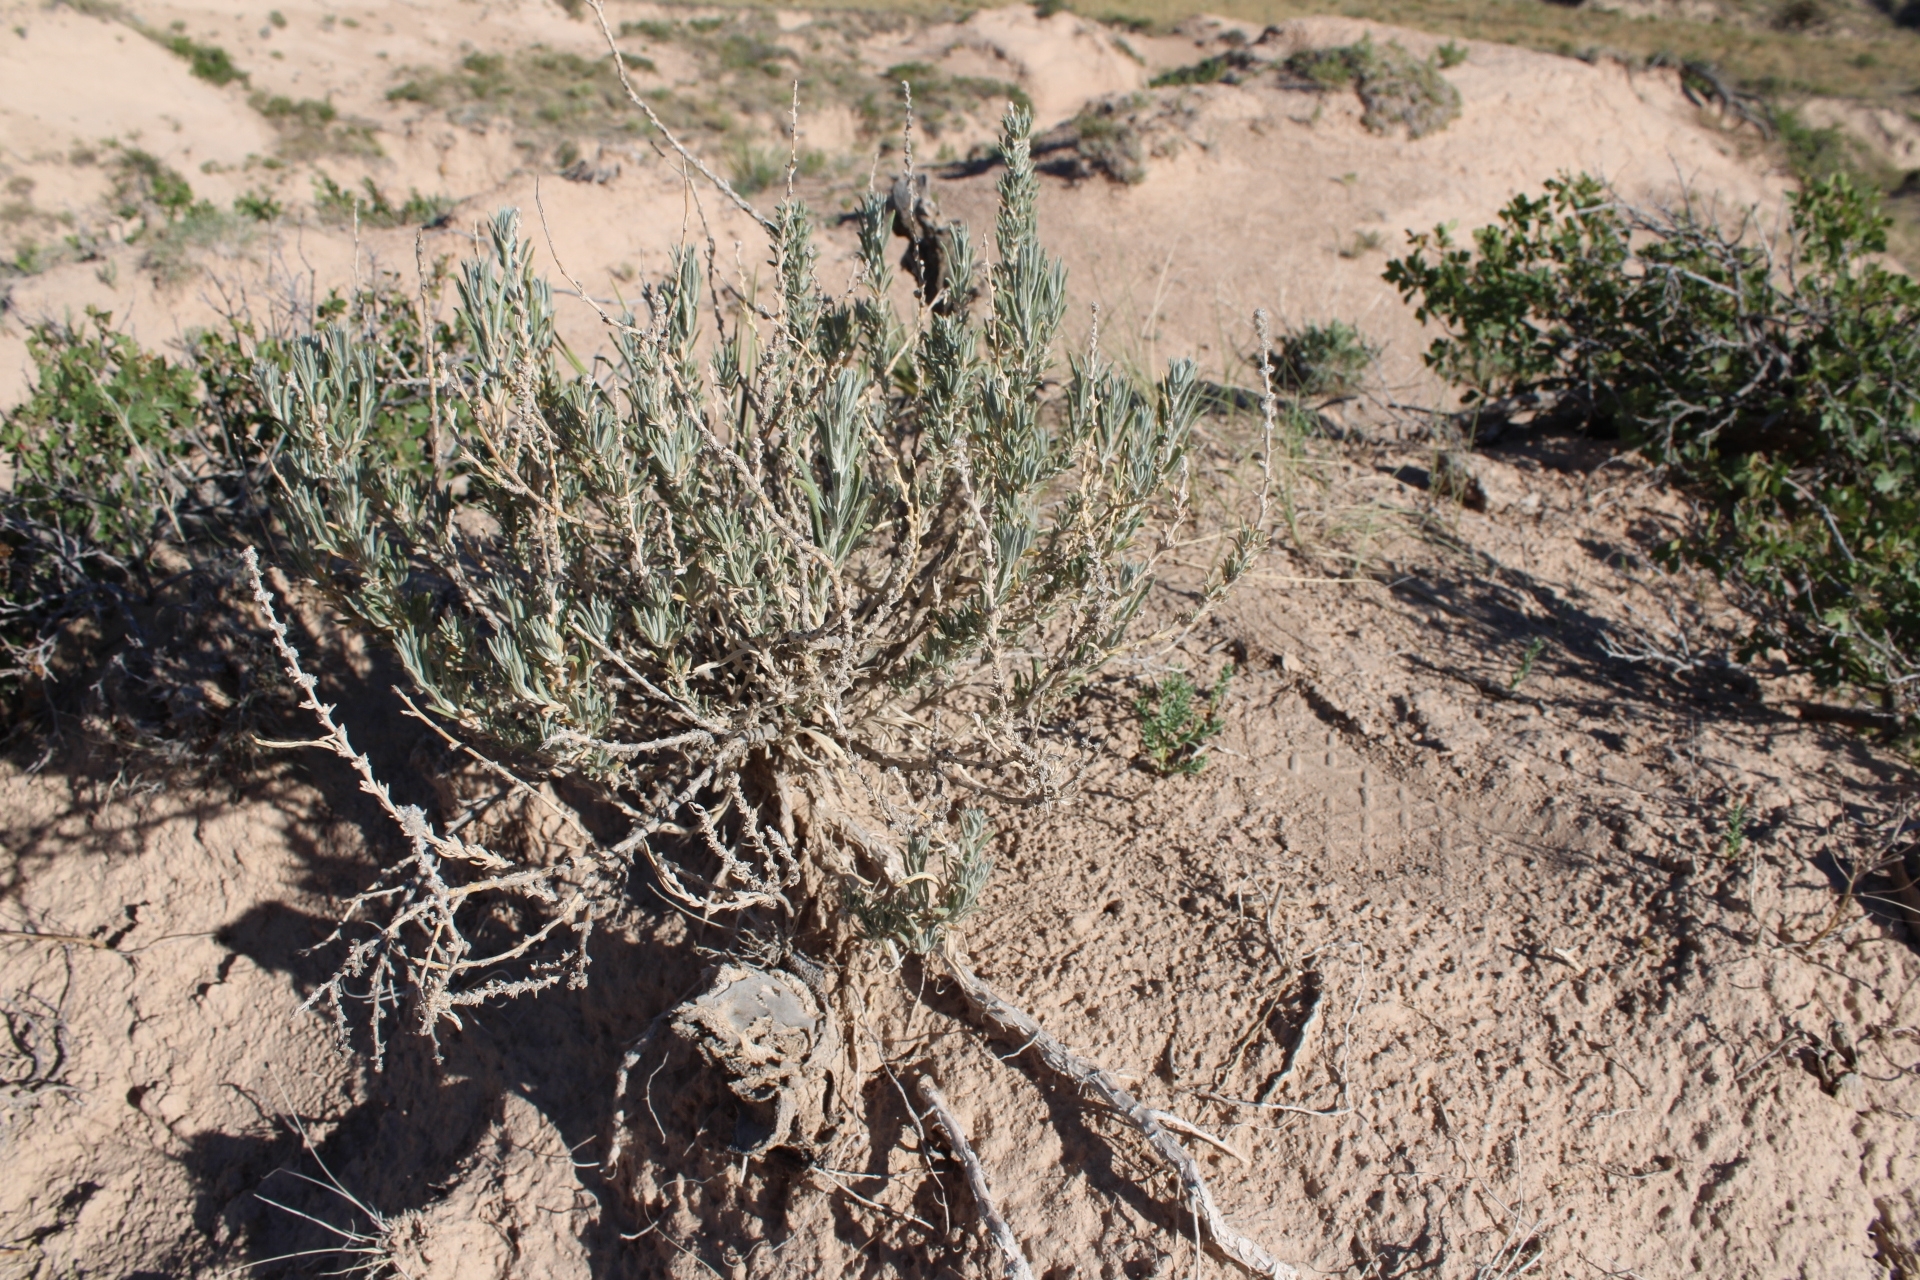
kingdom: Plantae
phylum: Tracheophyta
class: Magnoliopsida
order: Caryophyllales
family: Amaranthaceae
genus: Krascheninnikovia
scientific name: Krascheninnikovia lanata
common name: Winterfat
